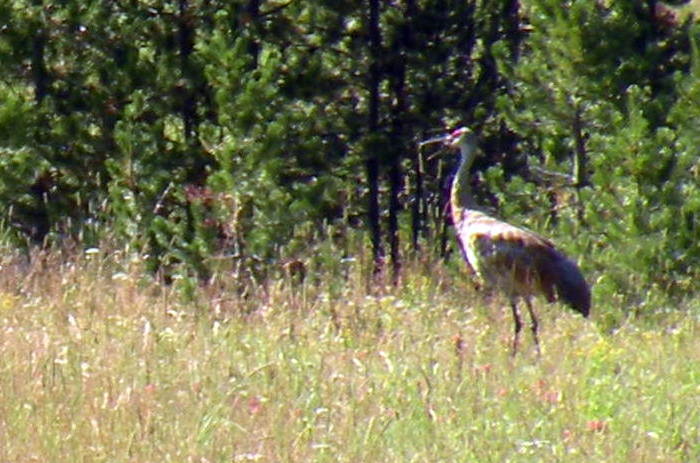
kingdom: Animalia
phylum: Chordata
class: Aves
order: Gruiformes
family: Gruidae
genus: Grus
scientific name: Grus canadensis
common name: Sandhill crane
